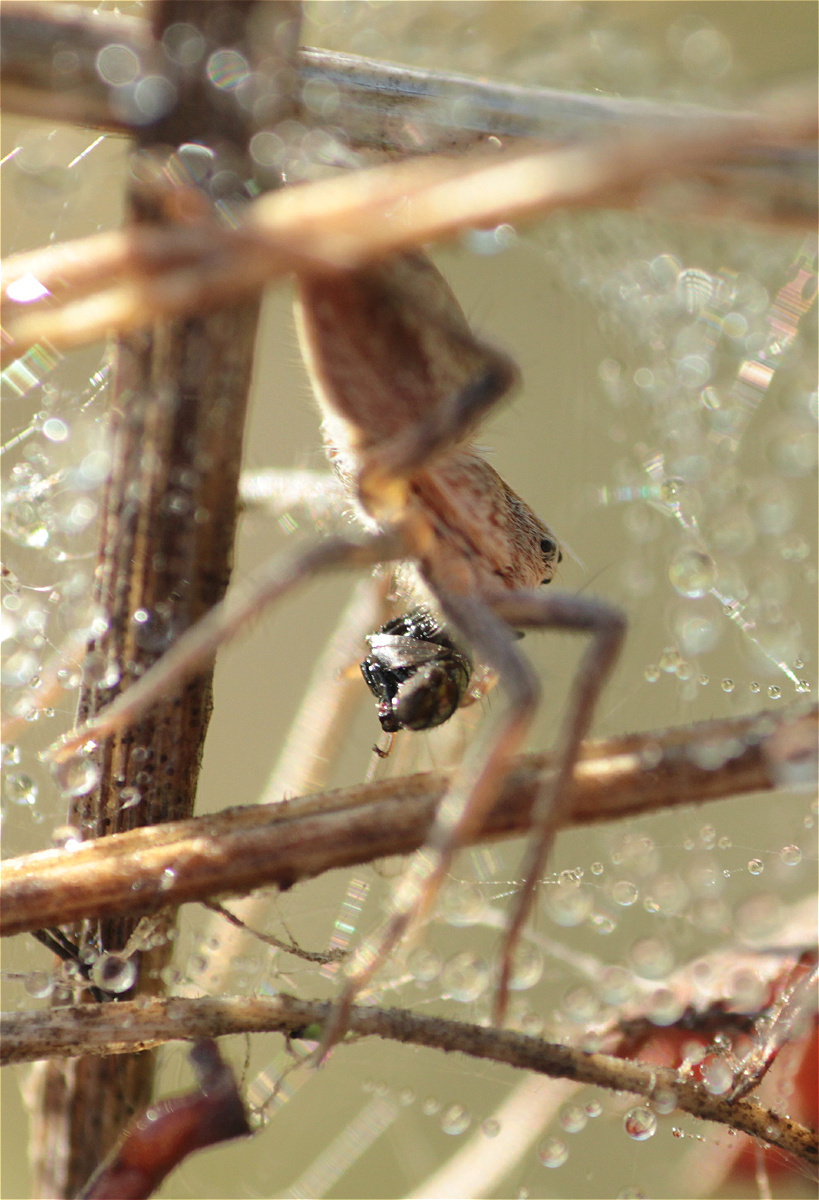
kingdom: Animalia
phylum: Arthropoda
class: Arachnida
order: Araneae
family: Pisauridae
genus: Pisaura
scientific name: Pisaura mirabilis
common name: Tent spider
